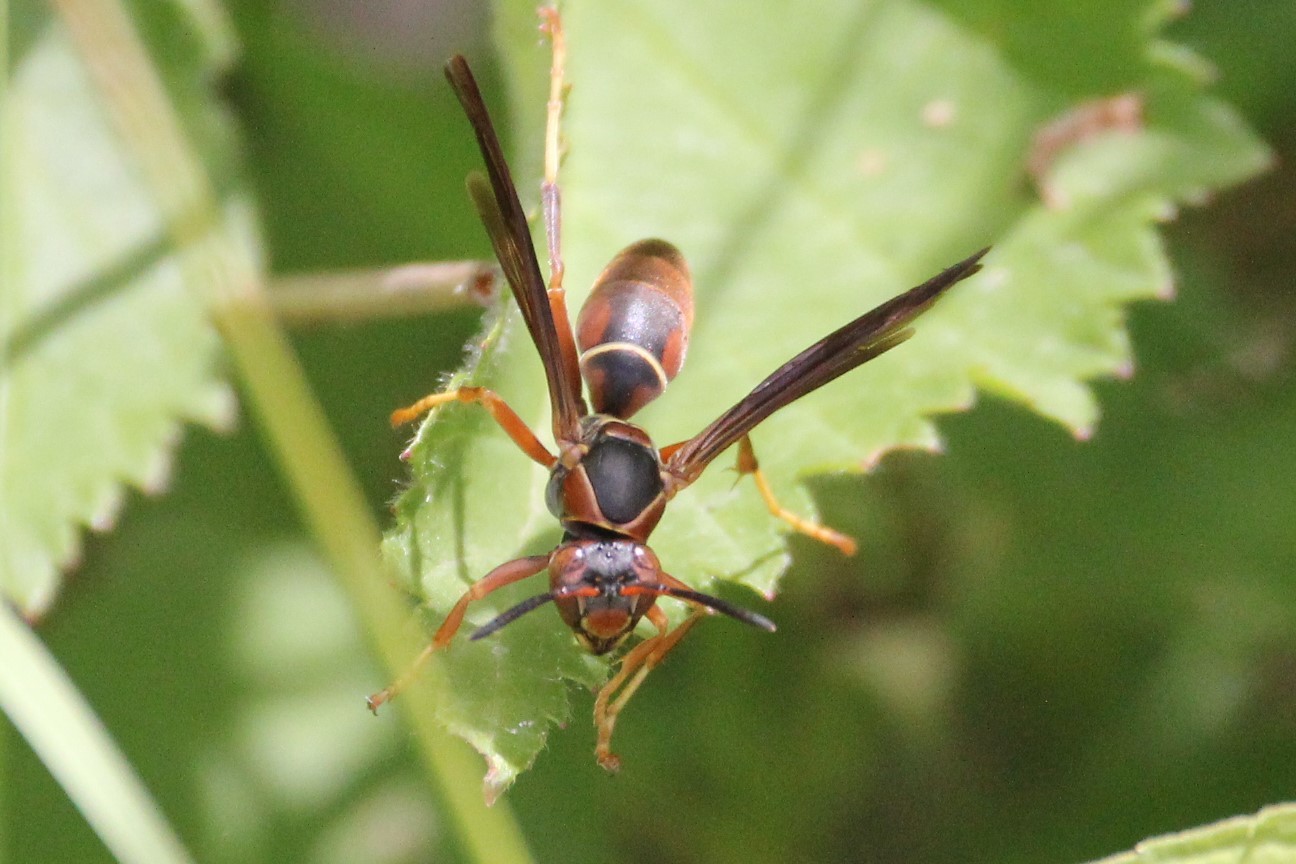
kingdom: Animalia
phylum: Arthropoda
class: Insecta
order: Hymenoptera
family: Eumenidae
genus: Polistes
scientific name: Polistes fuscatus
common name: Dark paper wasp
